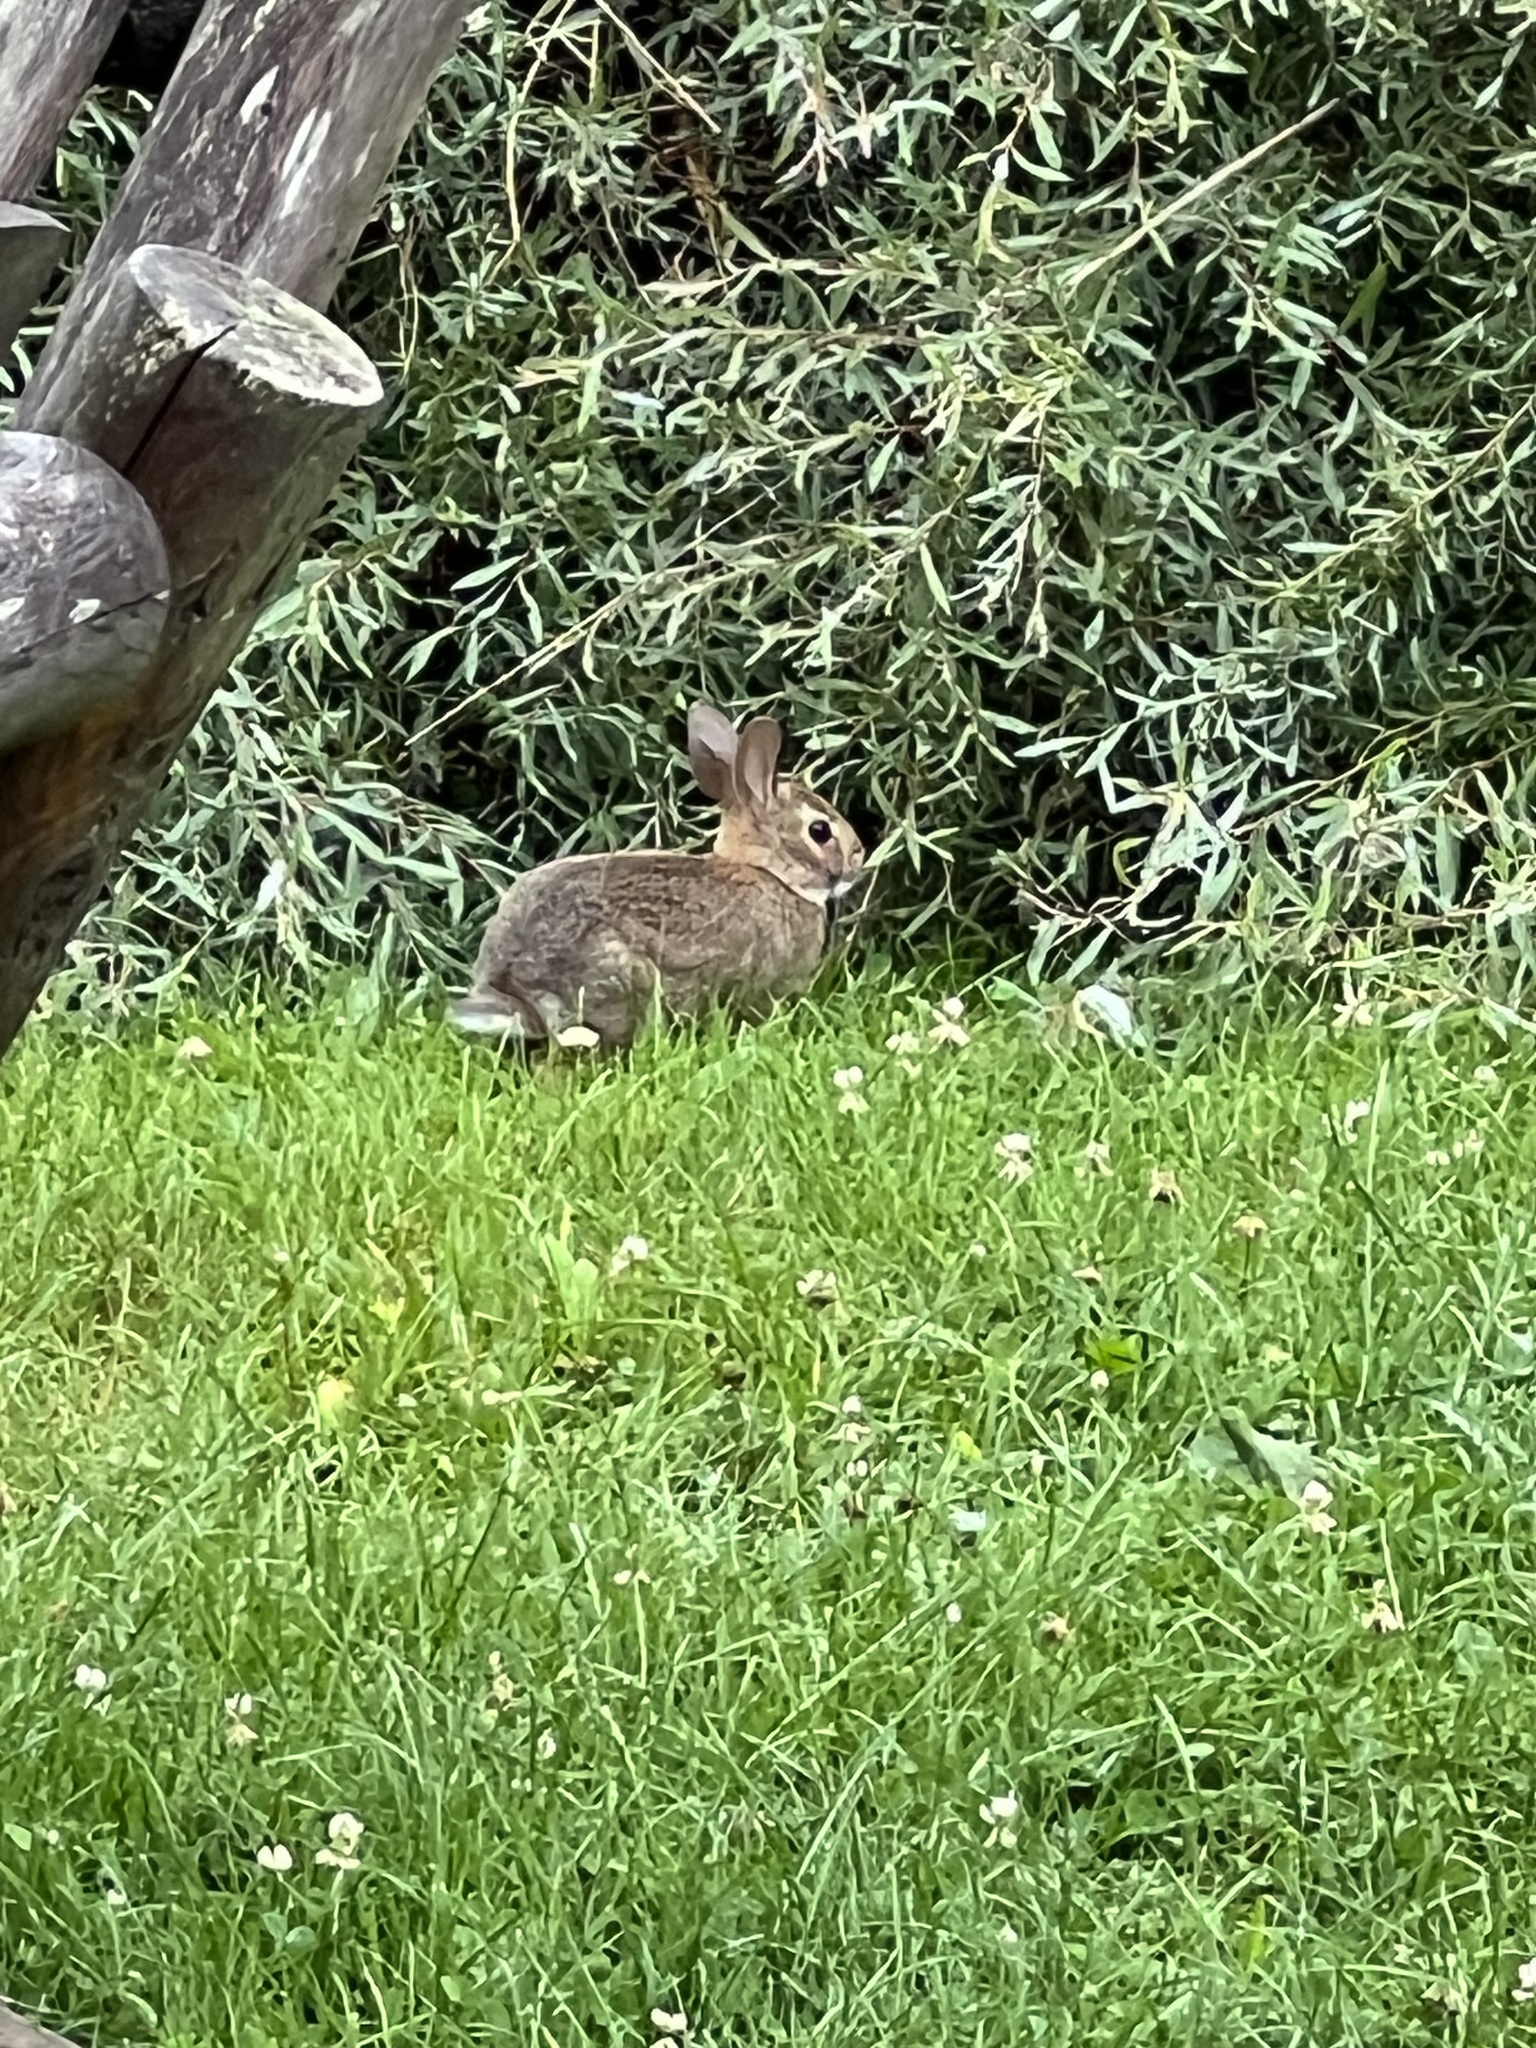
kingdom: Animalia
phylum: Chordata
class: Mammalia
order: Lagomorpha
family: Leporidae
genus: Sylvilagus
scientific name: Sylvilagus floridanus
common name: Eastern cottontail
